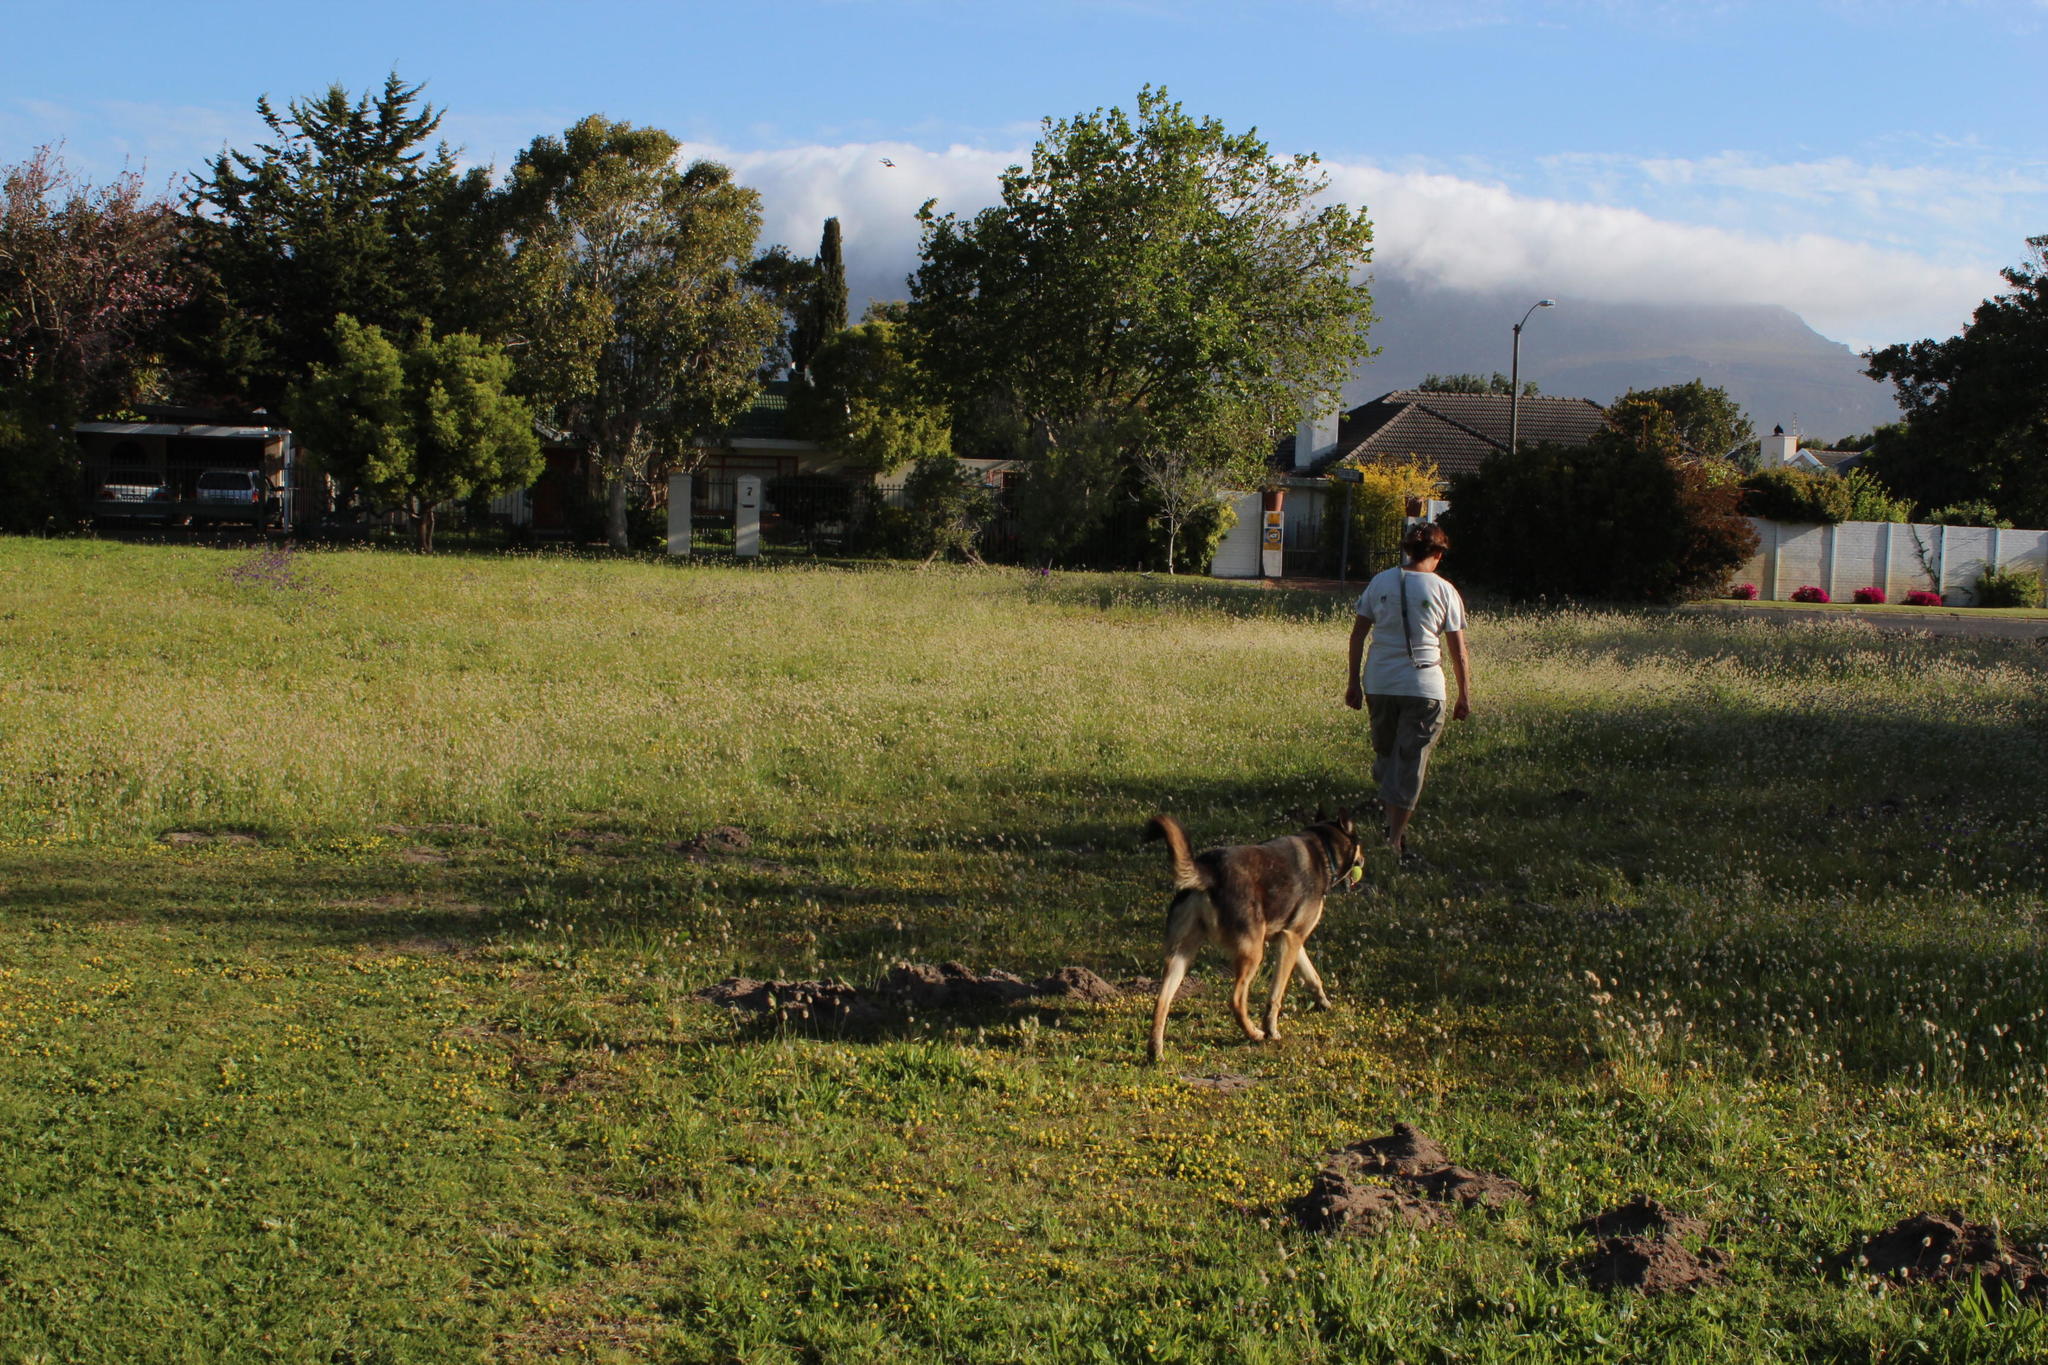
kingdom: Plantae
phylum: Tracheophyta
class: Liliopsida
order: Poales
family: Poaceae
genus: Lagurus
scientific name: Lagurus ovatus
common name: Hare's-tail
